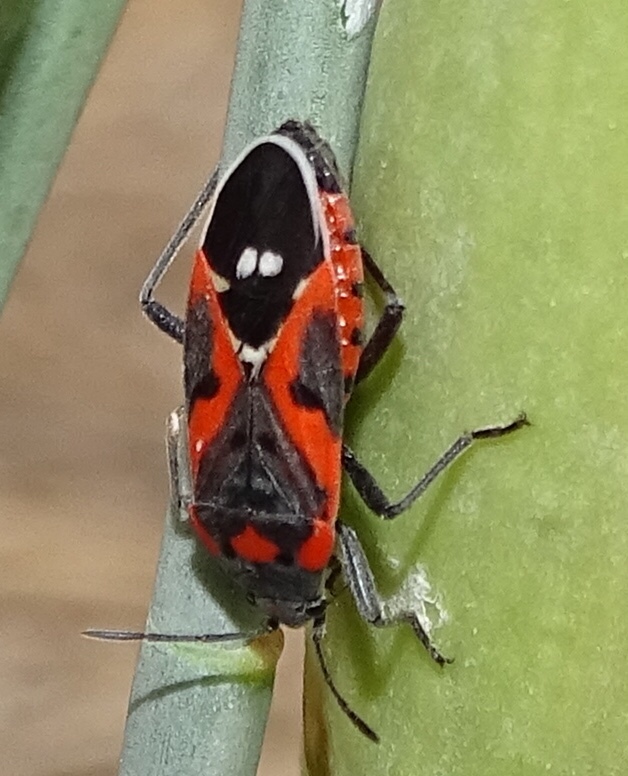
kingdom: Animalia
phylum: Arthropoda
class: Insecta
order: Hemiptera
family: Lygaeidae
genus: Lygaeus
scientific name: Lygaeus kalmii
